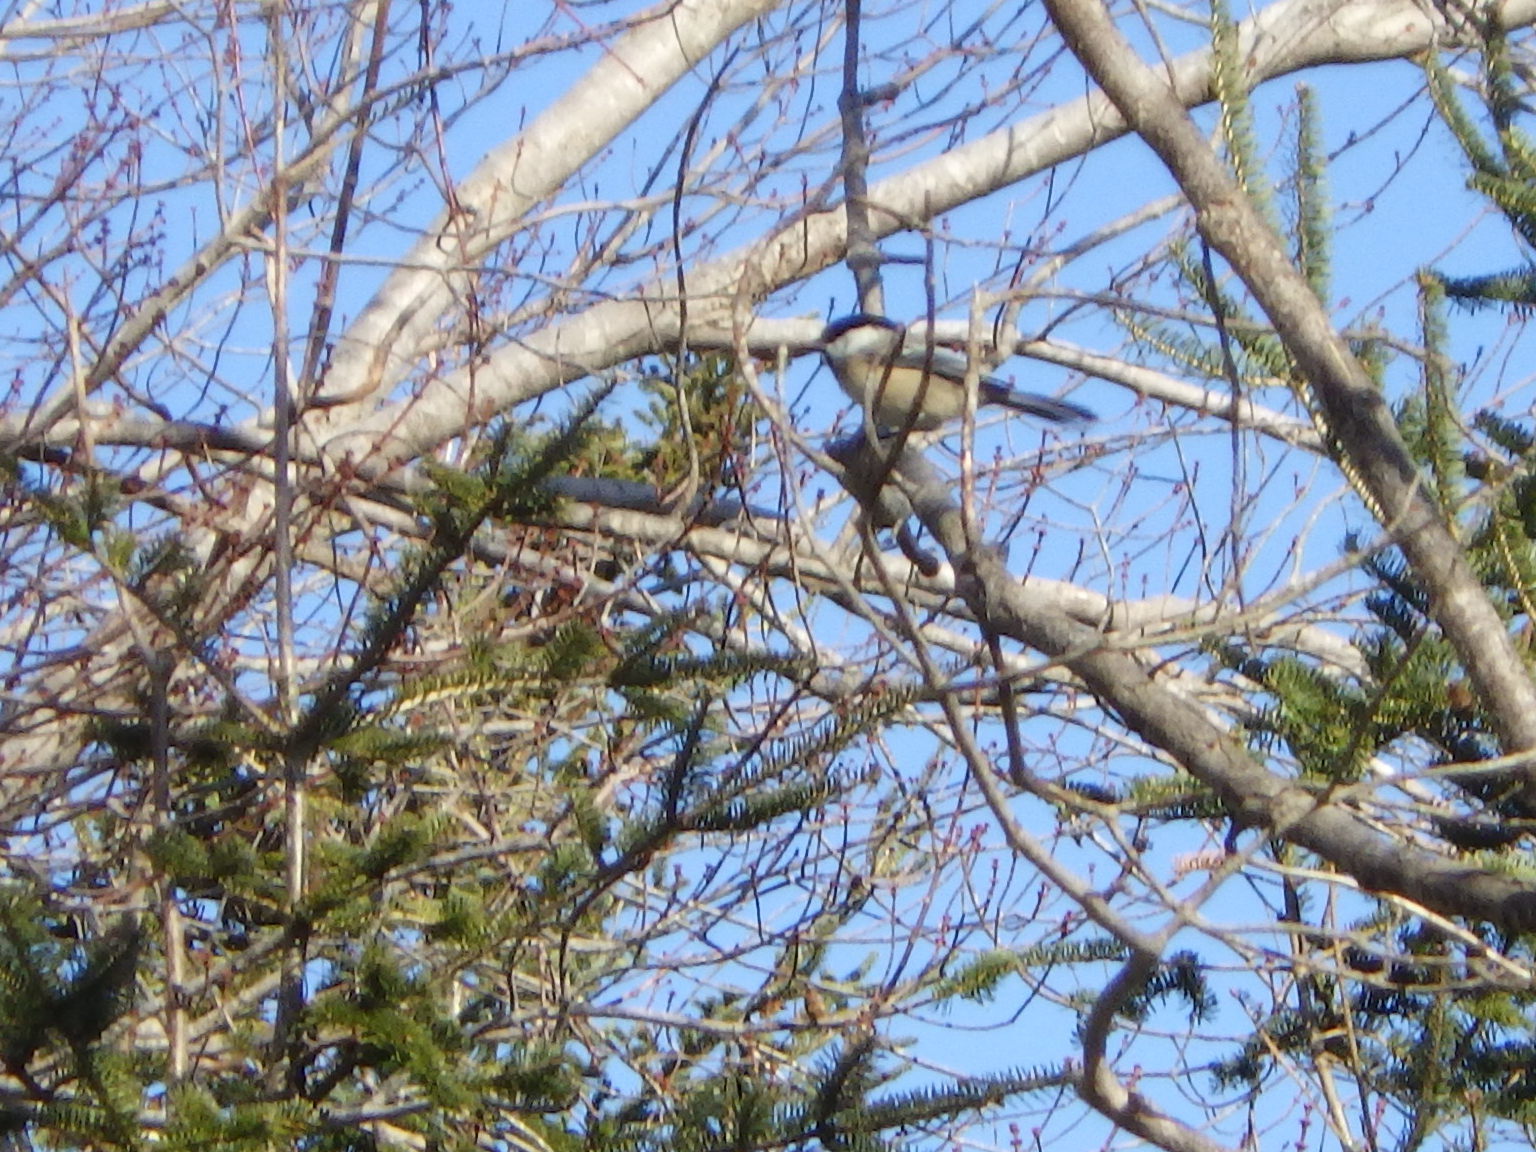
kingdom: Animalia
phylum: Chordata
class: Aves
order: Passeriformes
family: Paridae
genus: Poecile
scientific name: Poecile atricapillus
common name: Black-capped chickadee
